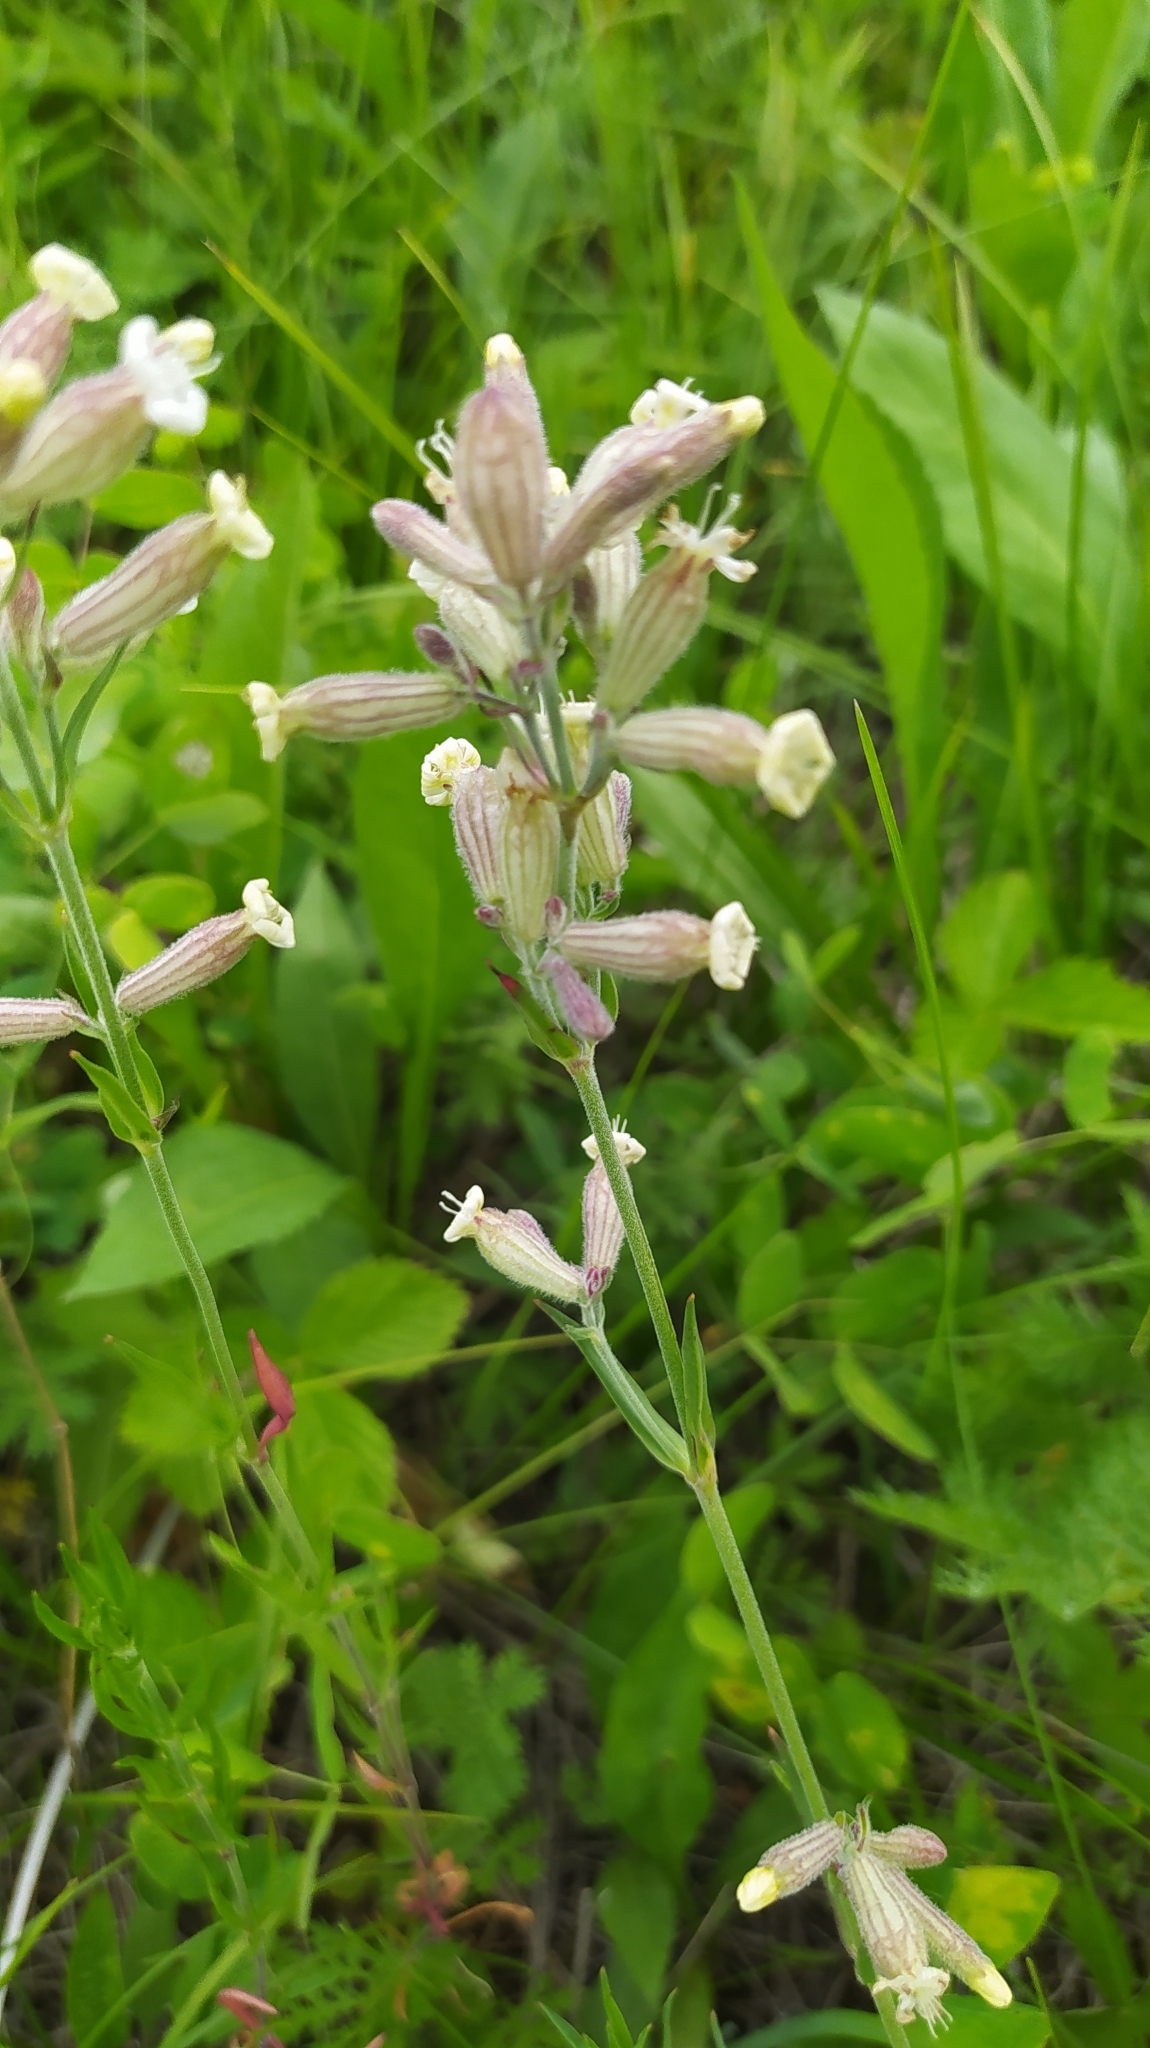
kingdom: Plantae
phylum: Tracheophyta
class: Magnoliopsida
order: Caryophyllales
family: Caryophyllaceae
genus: Silene
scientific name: Silene amoena
